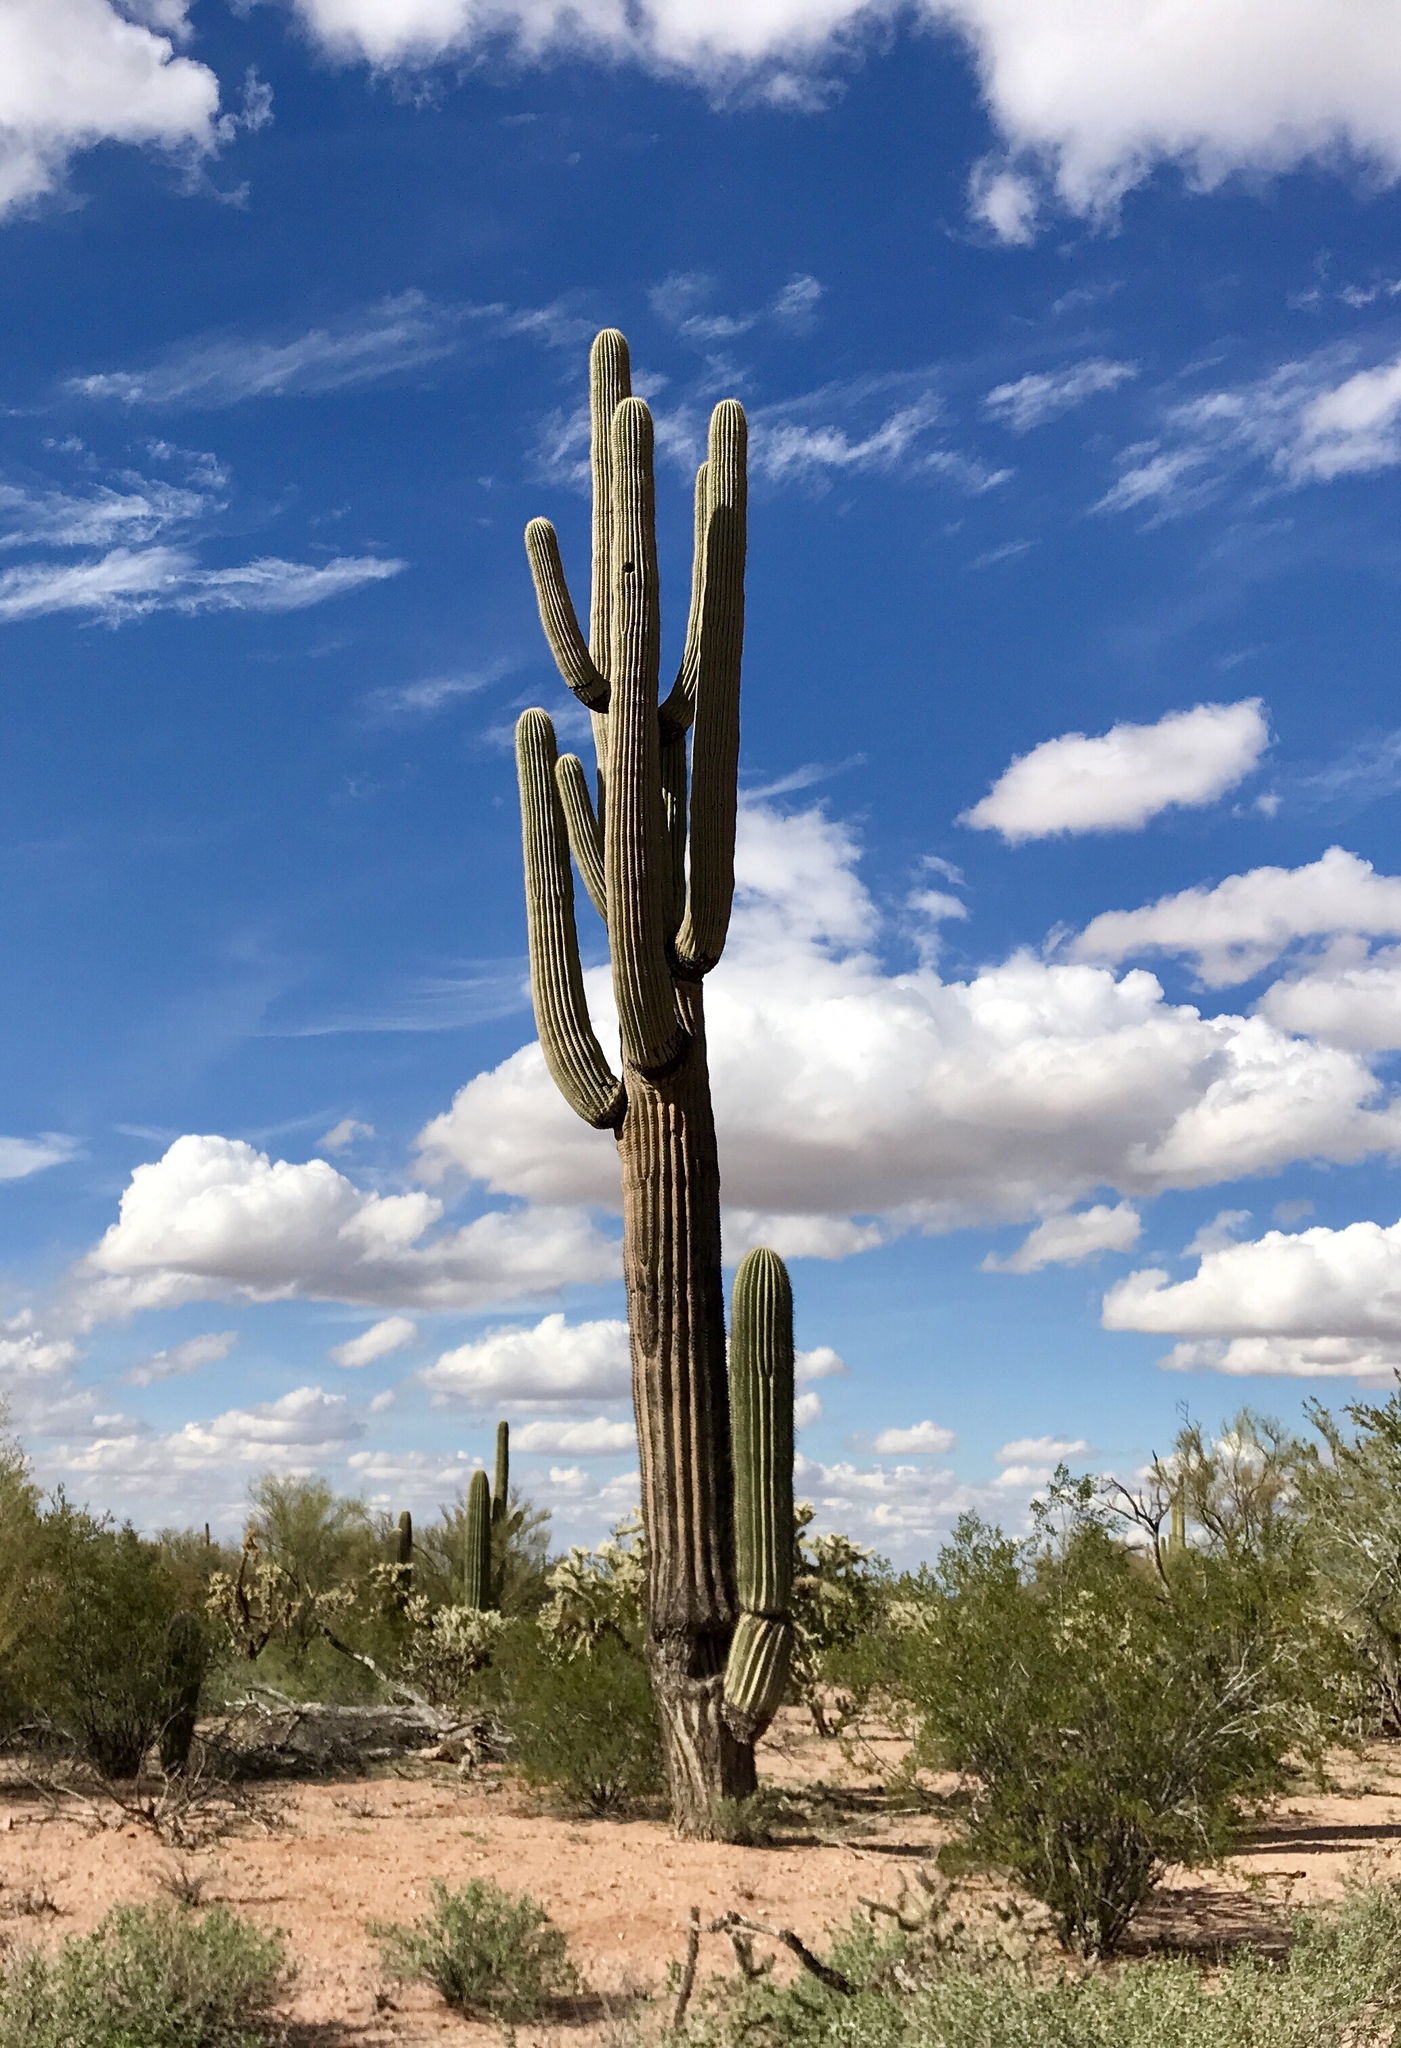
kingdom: Plantae
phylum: Tracheophyta
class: Magnoliopsida
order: Caryophyllales
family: Cactaceae
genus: Carnegiea
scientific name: Carnegiea gigantea
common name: Saguaro
